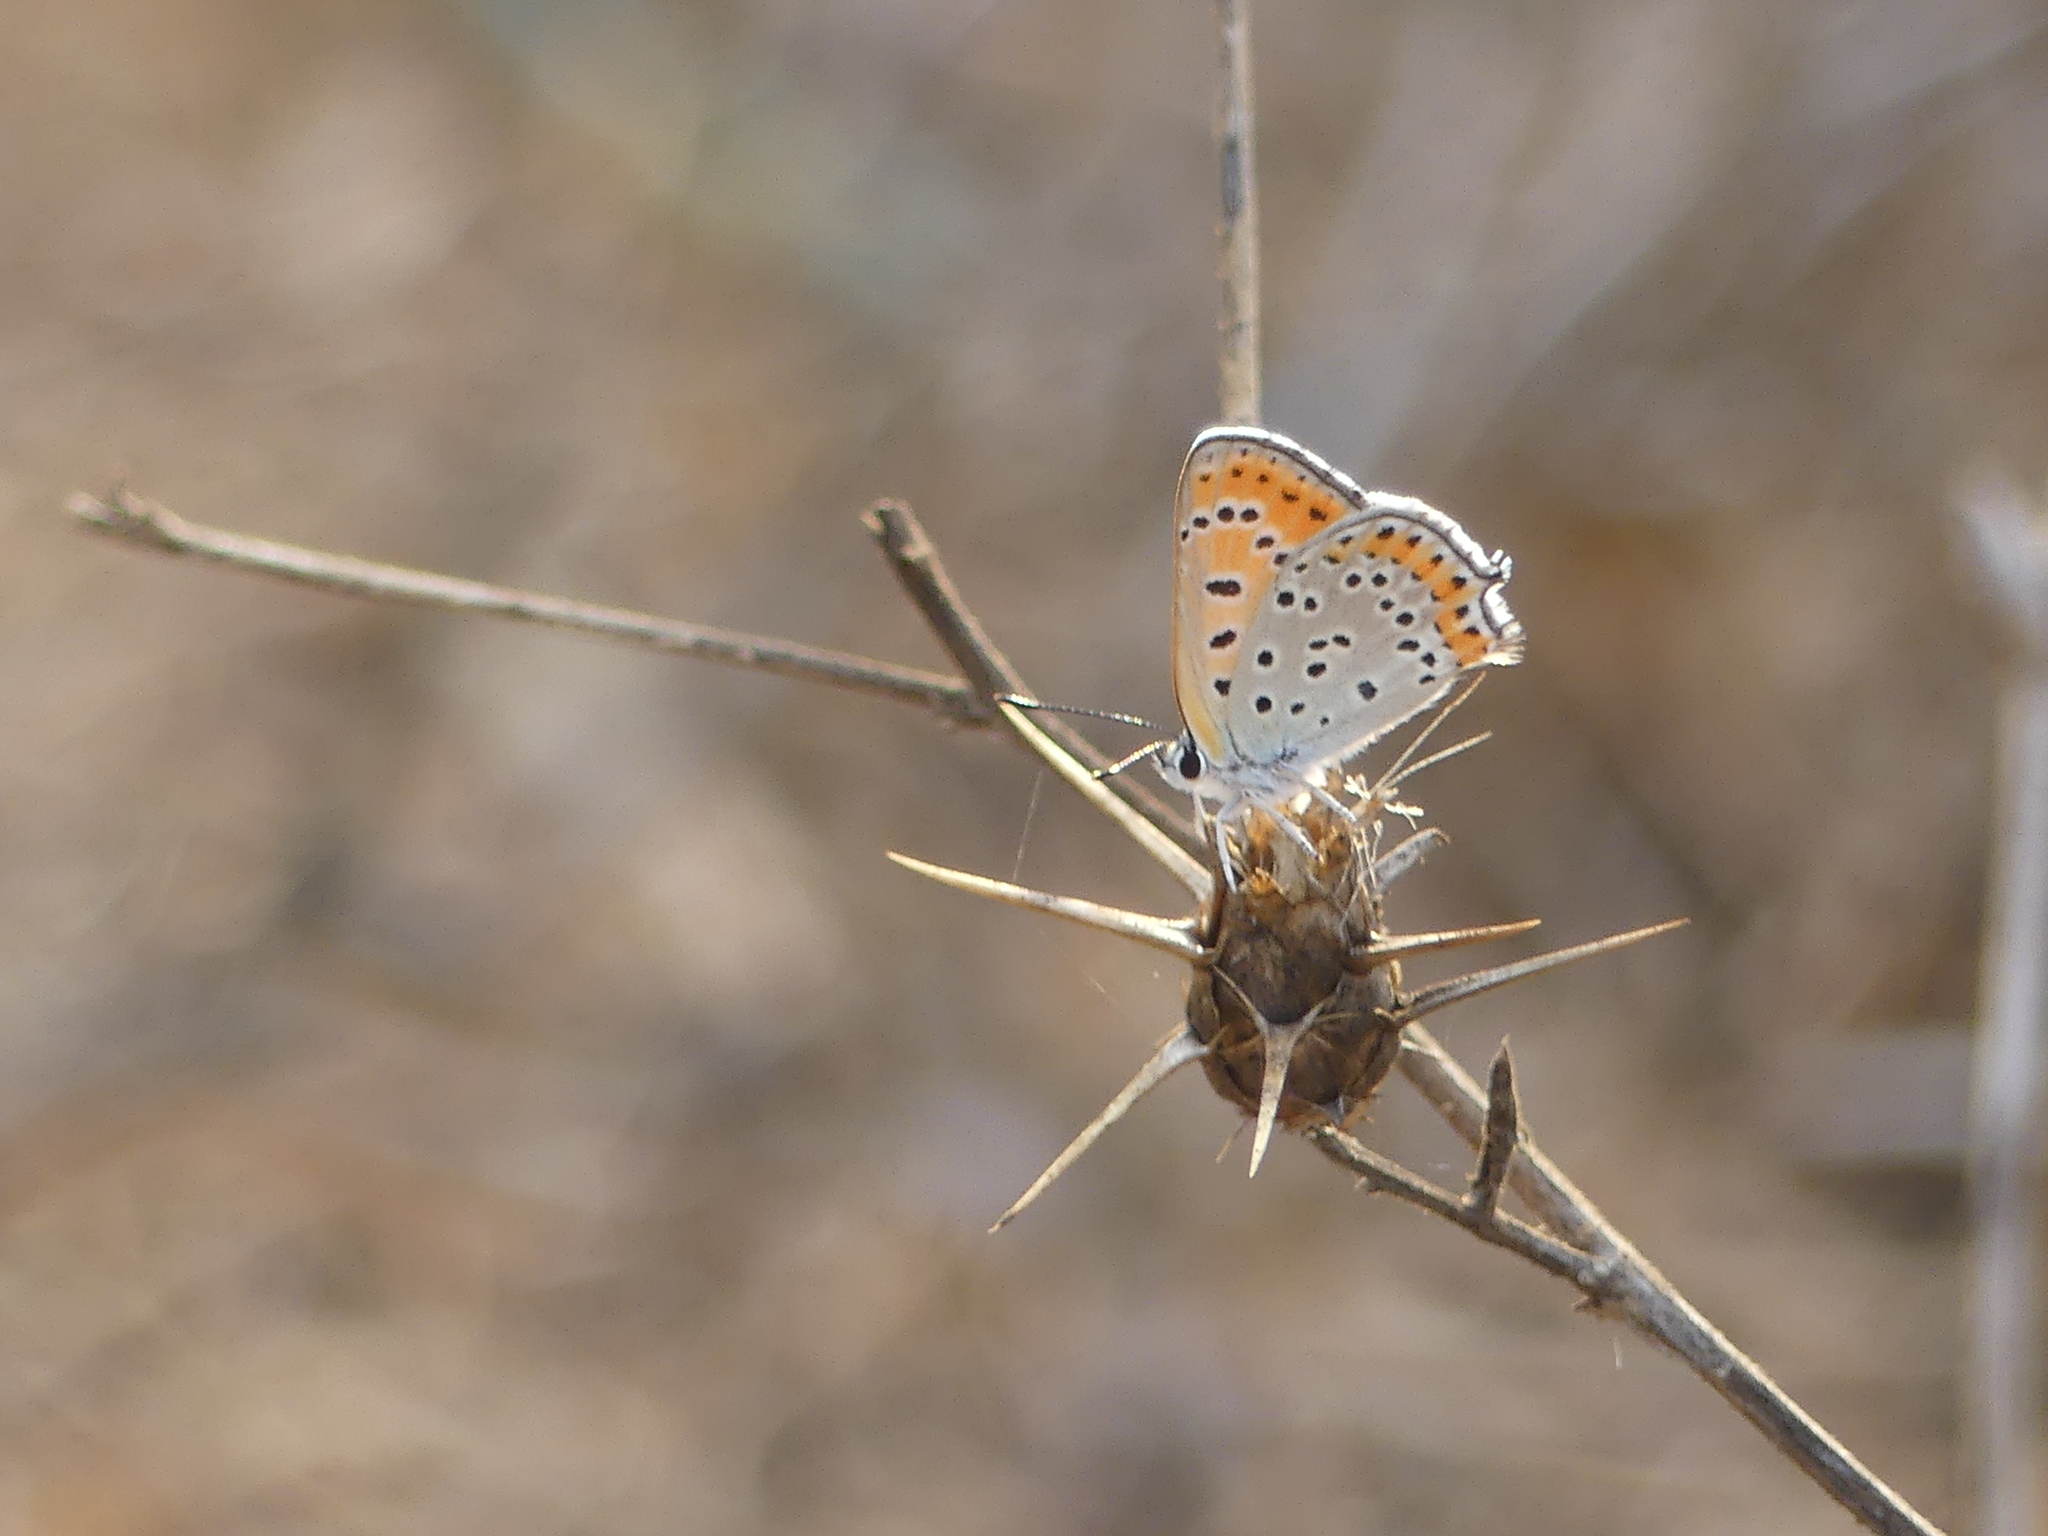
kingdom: Animalia
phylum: Arthropoda
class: Insecta
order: Lepidoptera
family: Lycaenidae
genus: Thersamonia
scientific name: Thersamonia thersamon
